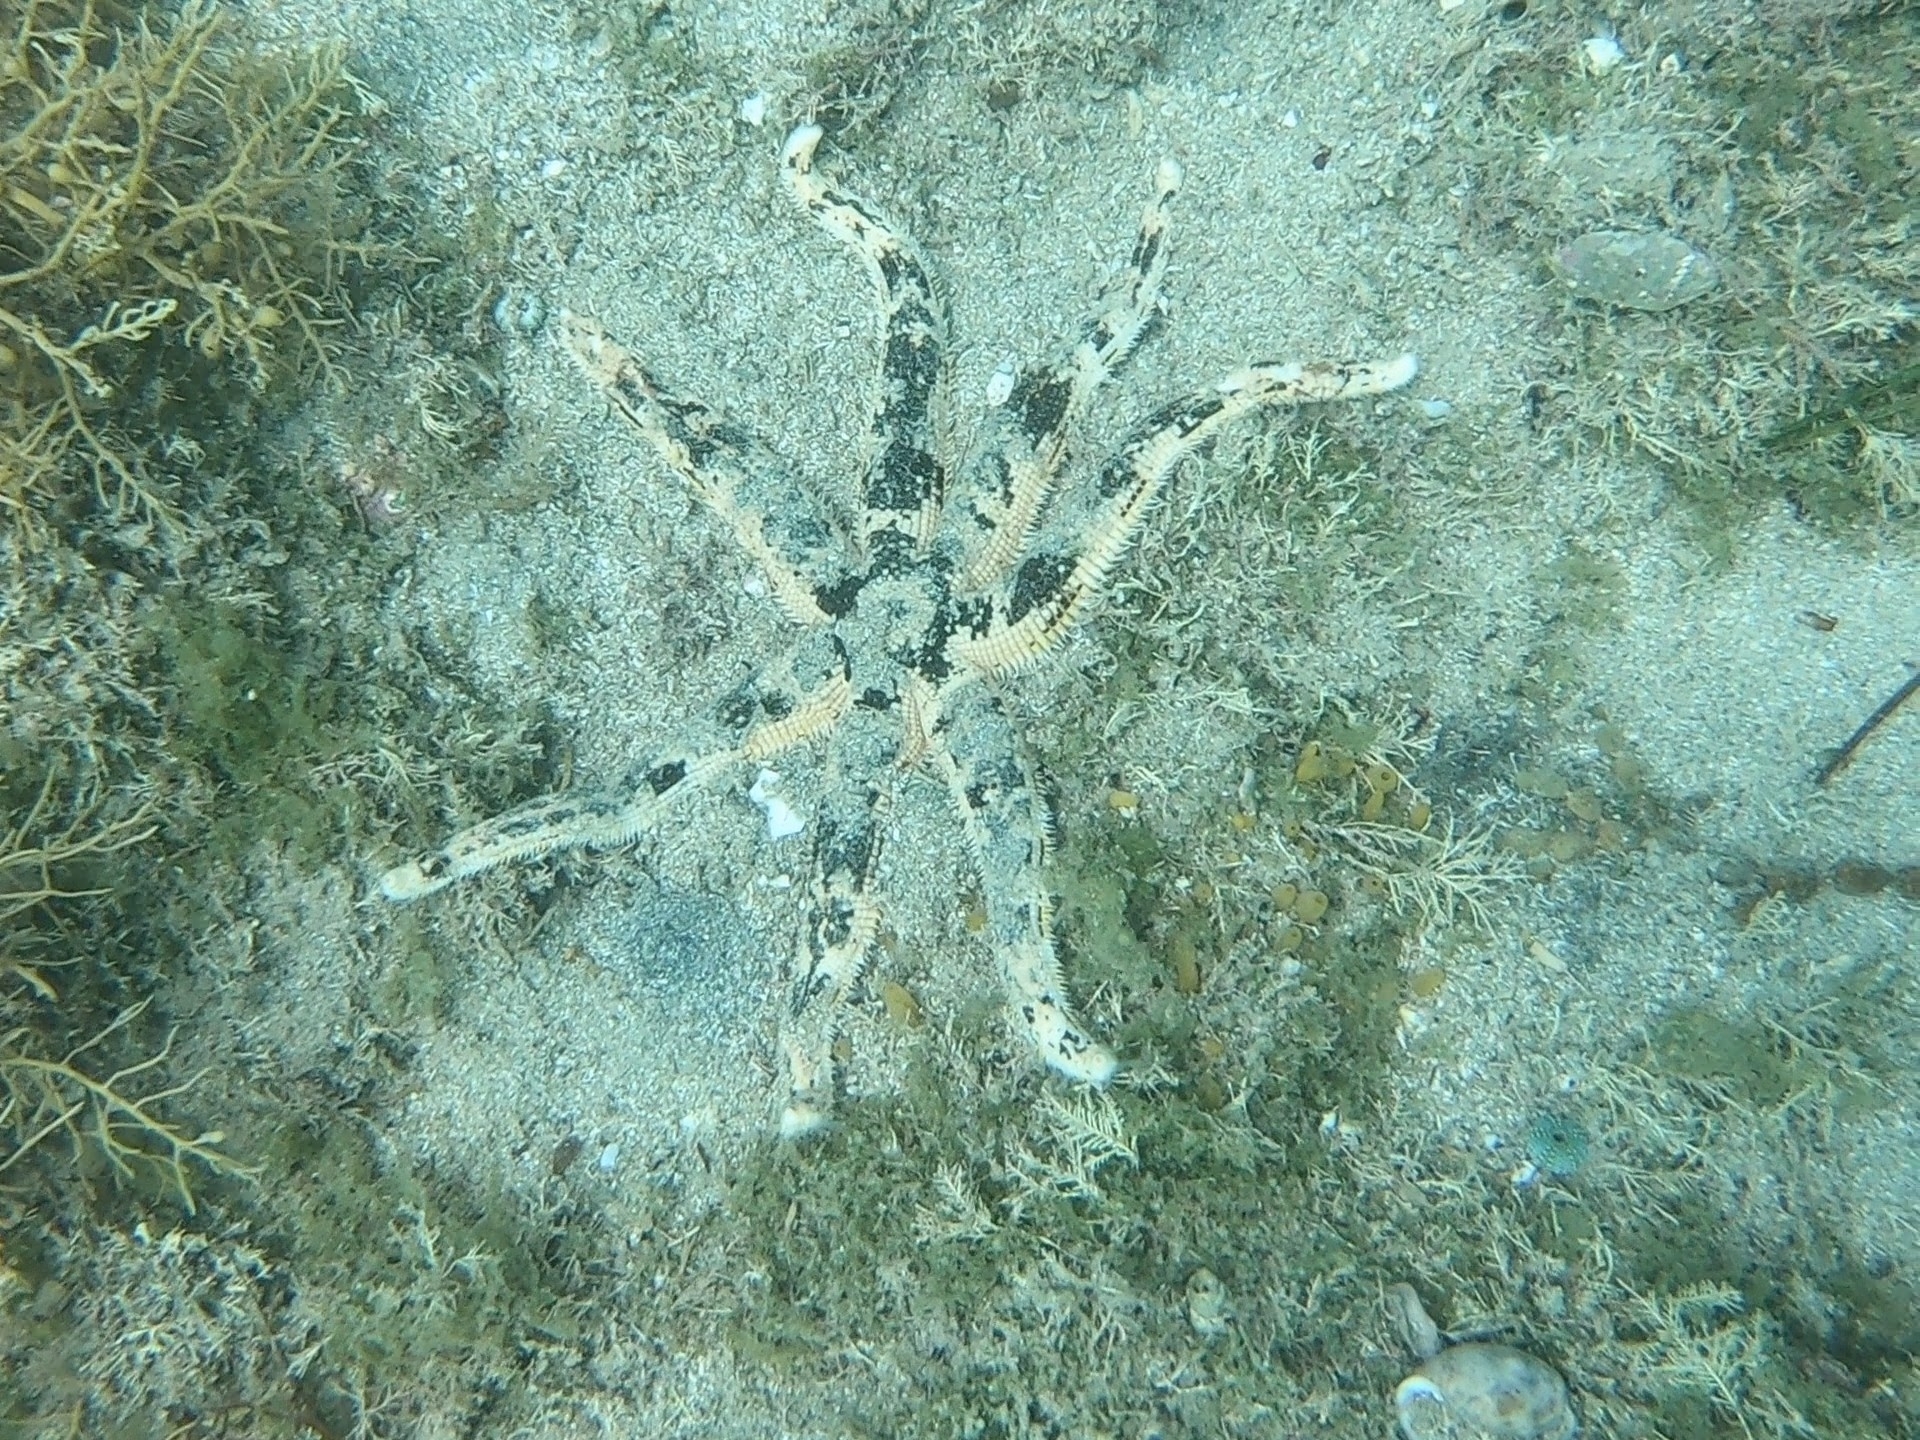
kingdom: Animalia
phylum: Echinodermata
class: Asteroidea
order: Paxillosida
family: Luidiidae
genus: Luidia
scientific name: Luidia australiae
